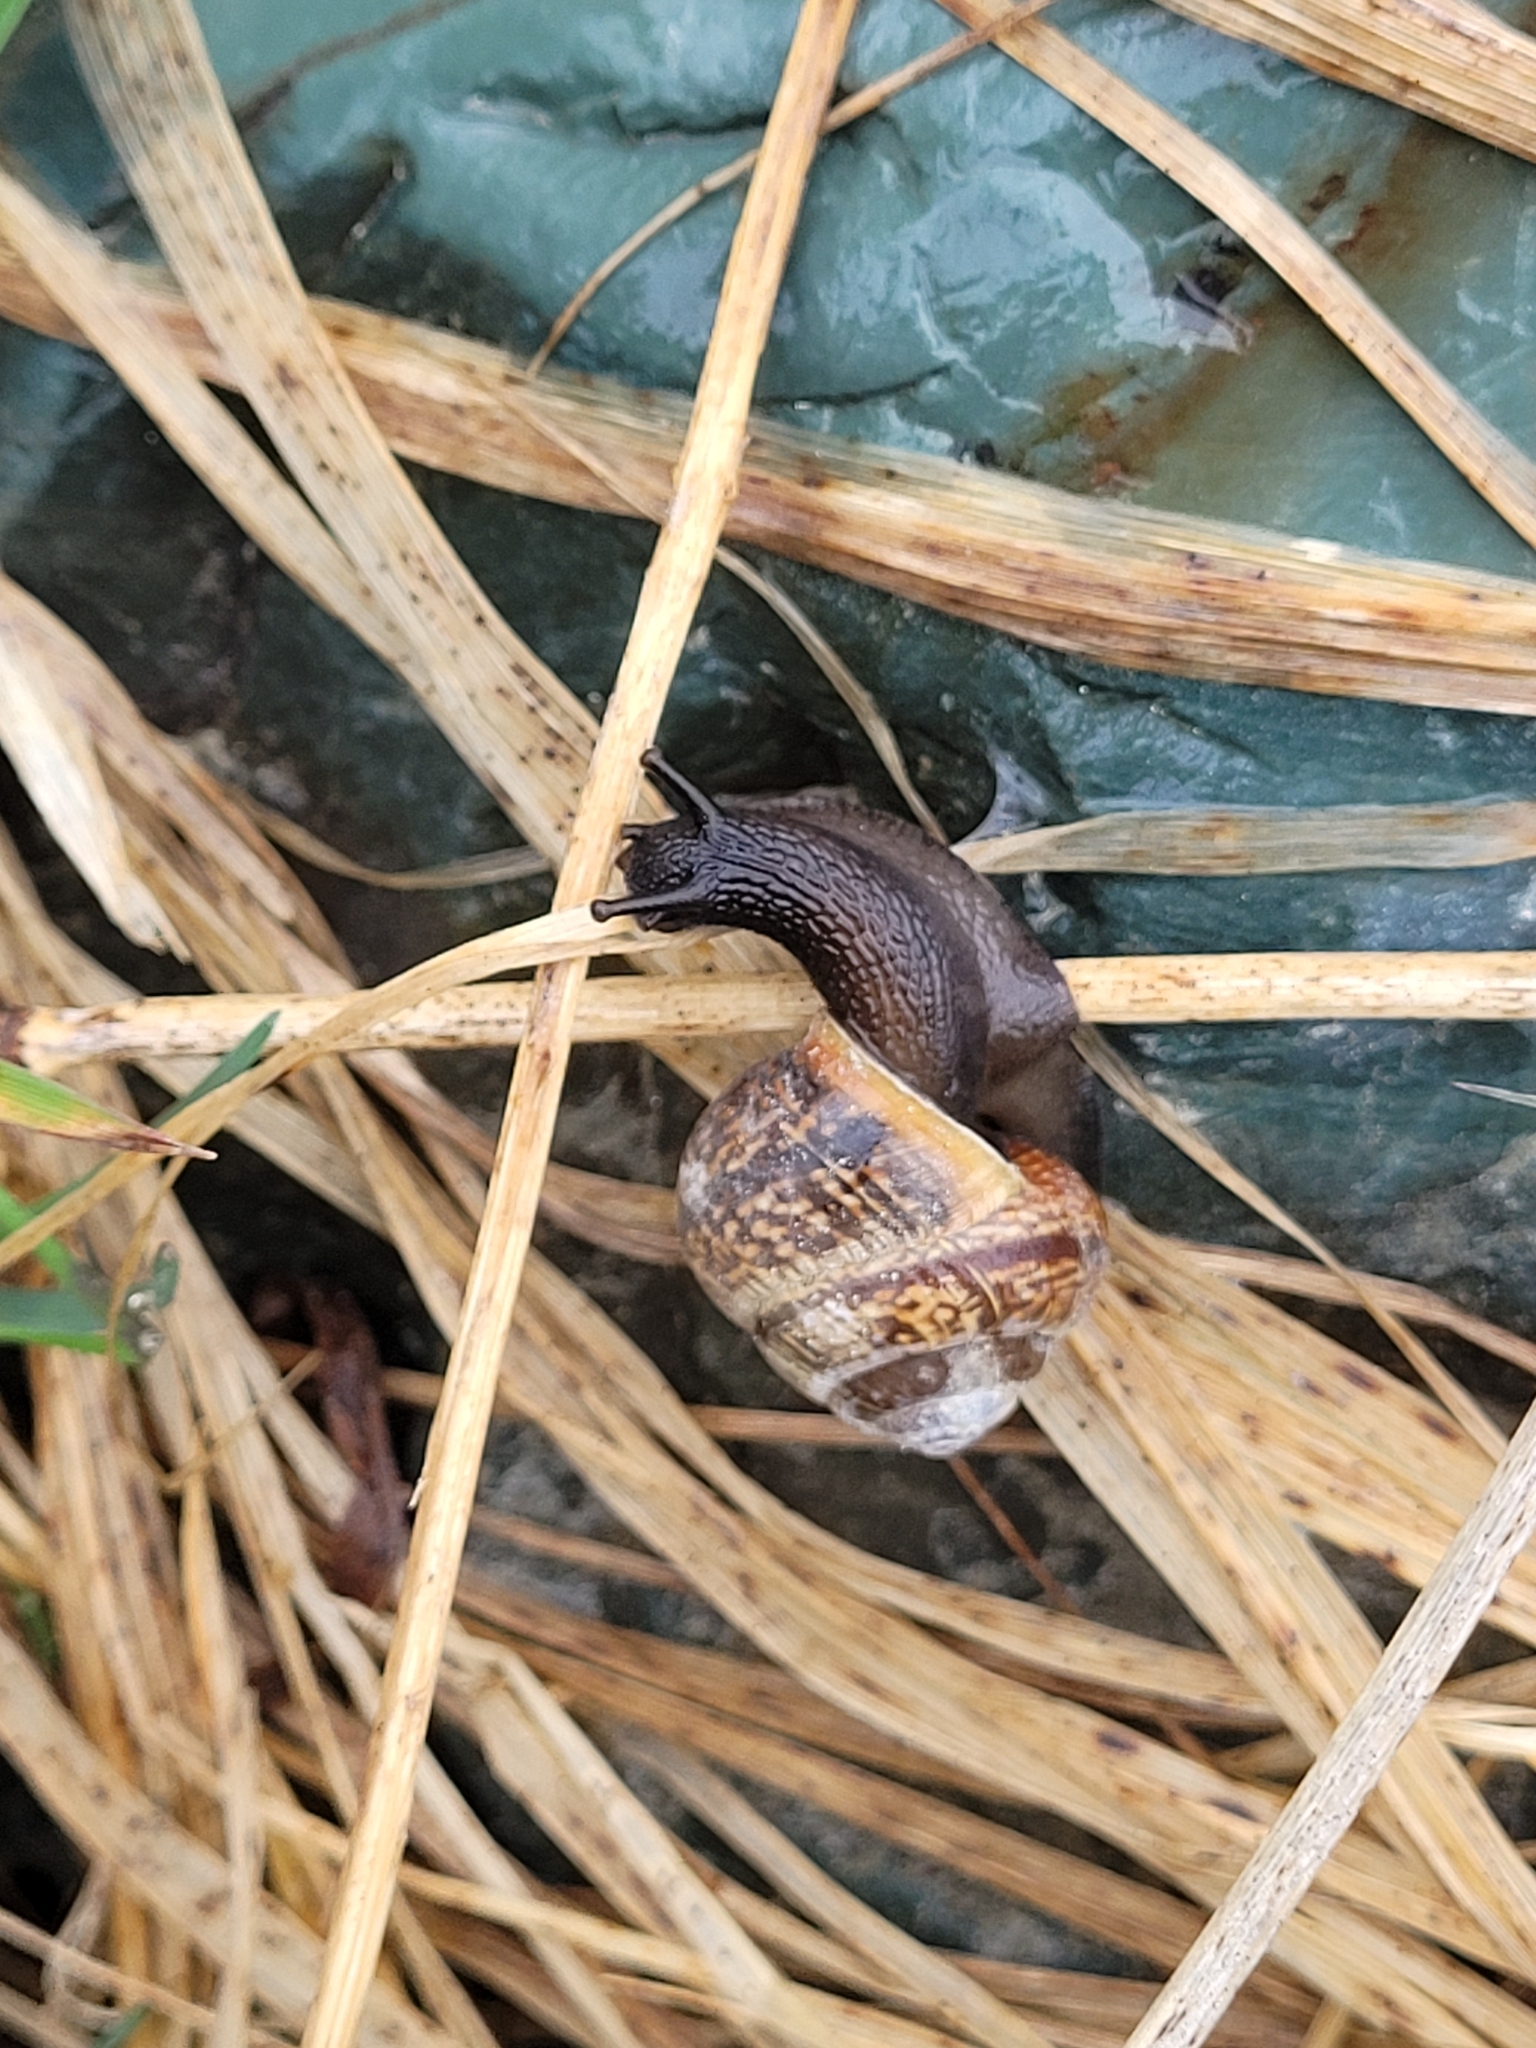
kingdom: Animalia
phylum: Mollusca
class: Gastropoda
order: Stylommatophora
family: Helicidae
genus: Arianta
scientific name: Arianta arbustorum
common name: Copse snail
